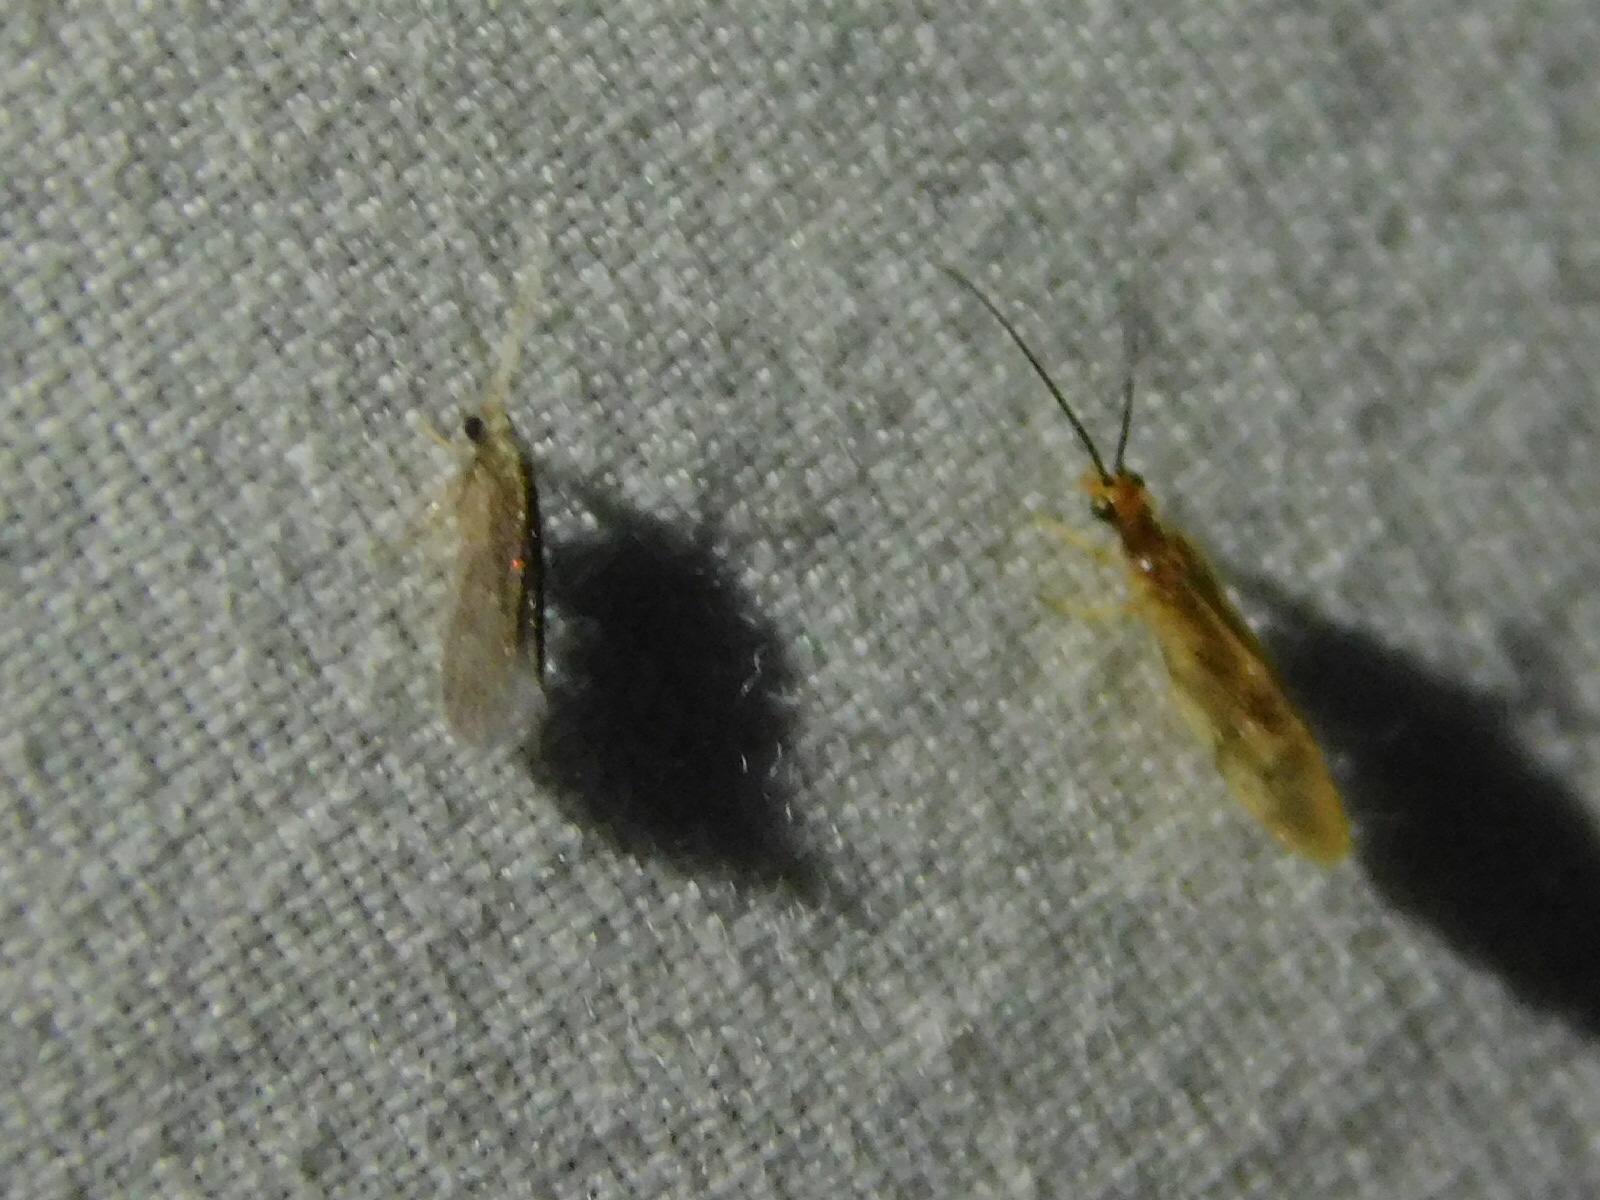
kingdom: Animalia
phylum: Arthropoda
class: Insecta
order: Neuroptera
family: Sisyridae
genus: Climacia
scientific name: Climacia areolaris
